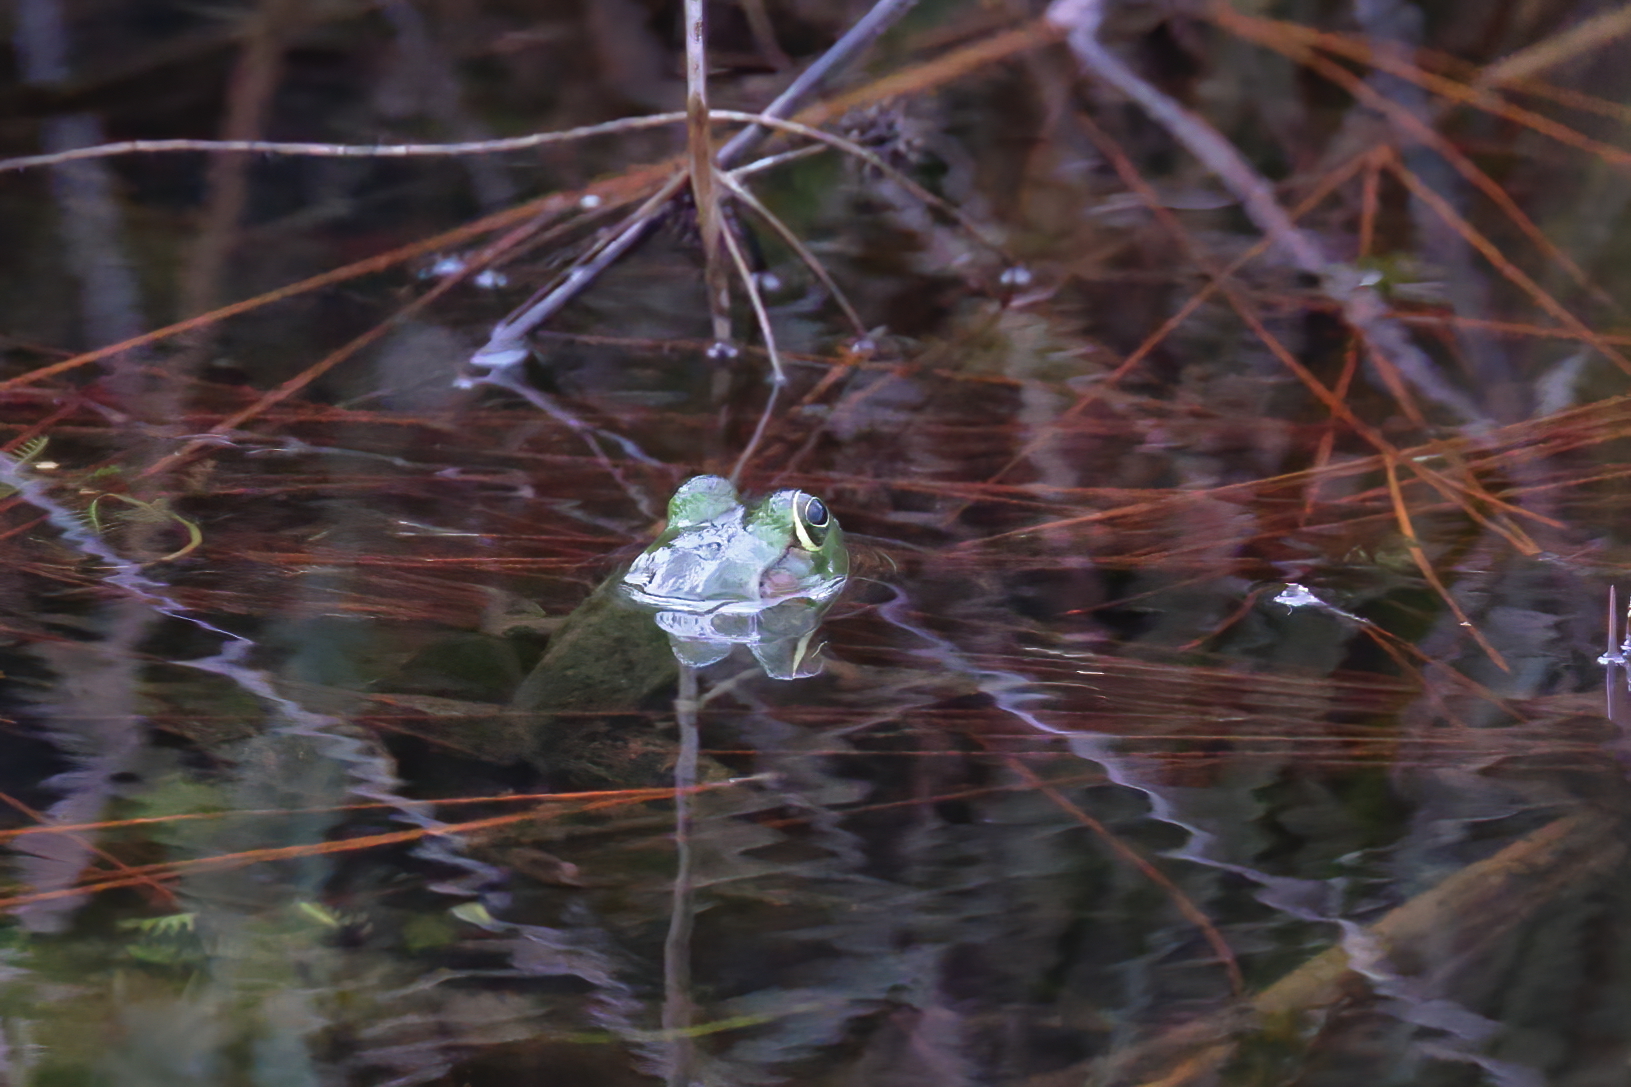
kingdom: Animalia
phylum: Chordata
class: Amphibia
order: Anura
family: Ranidae
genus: Lithobates
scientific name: Lithobates grylio
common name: Pig frog
